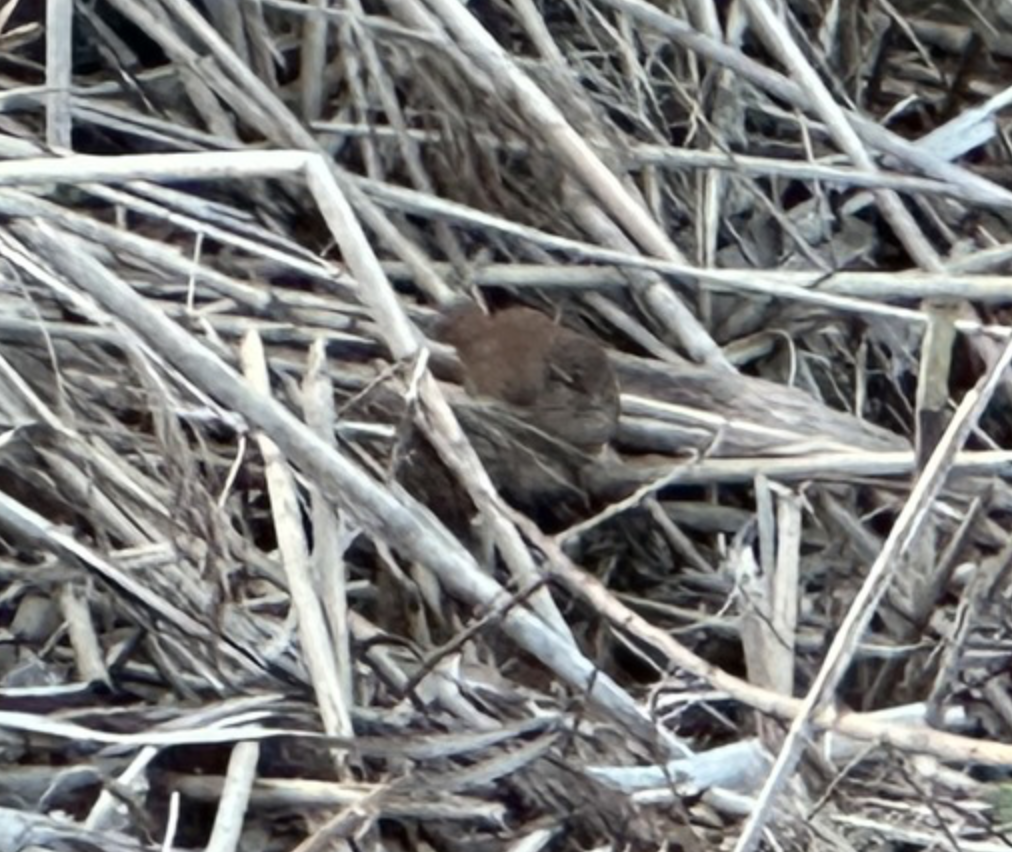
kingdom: Animalia
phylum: Chordata
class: Aves
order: Passeriformes
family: Troglodytidae
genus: Troglodytes
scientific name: Troglodytes troglodytes
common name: Eurasian wren
